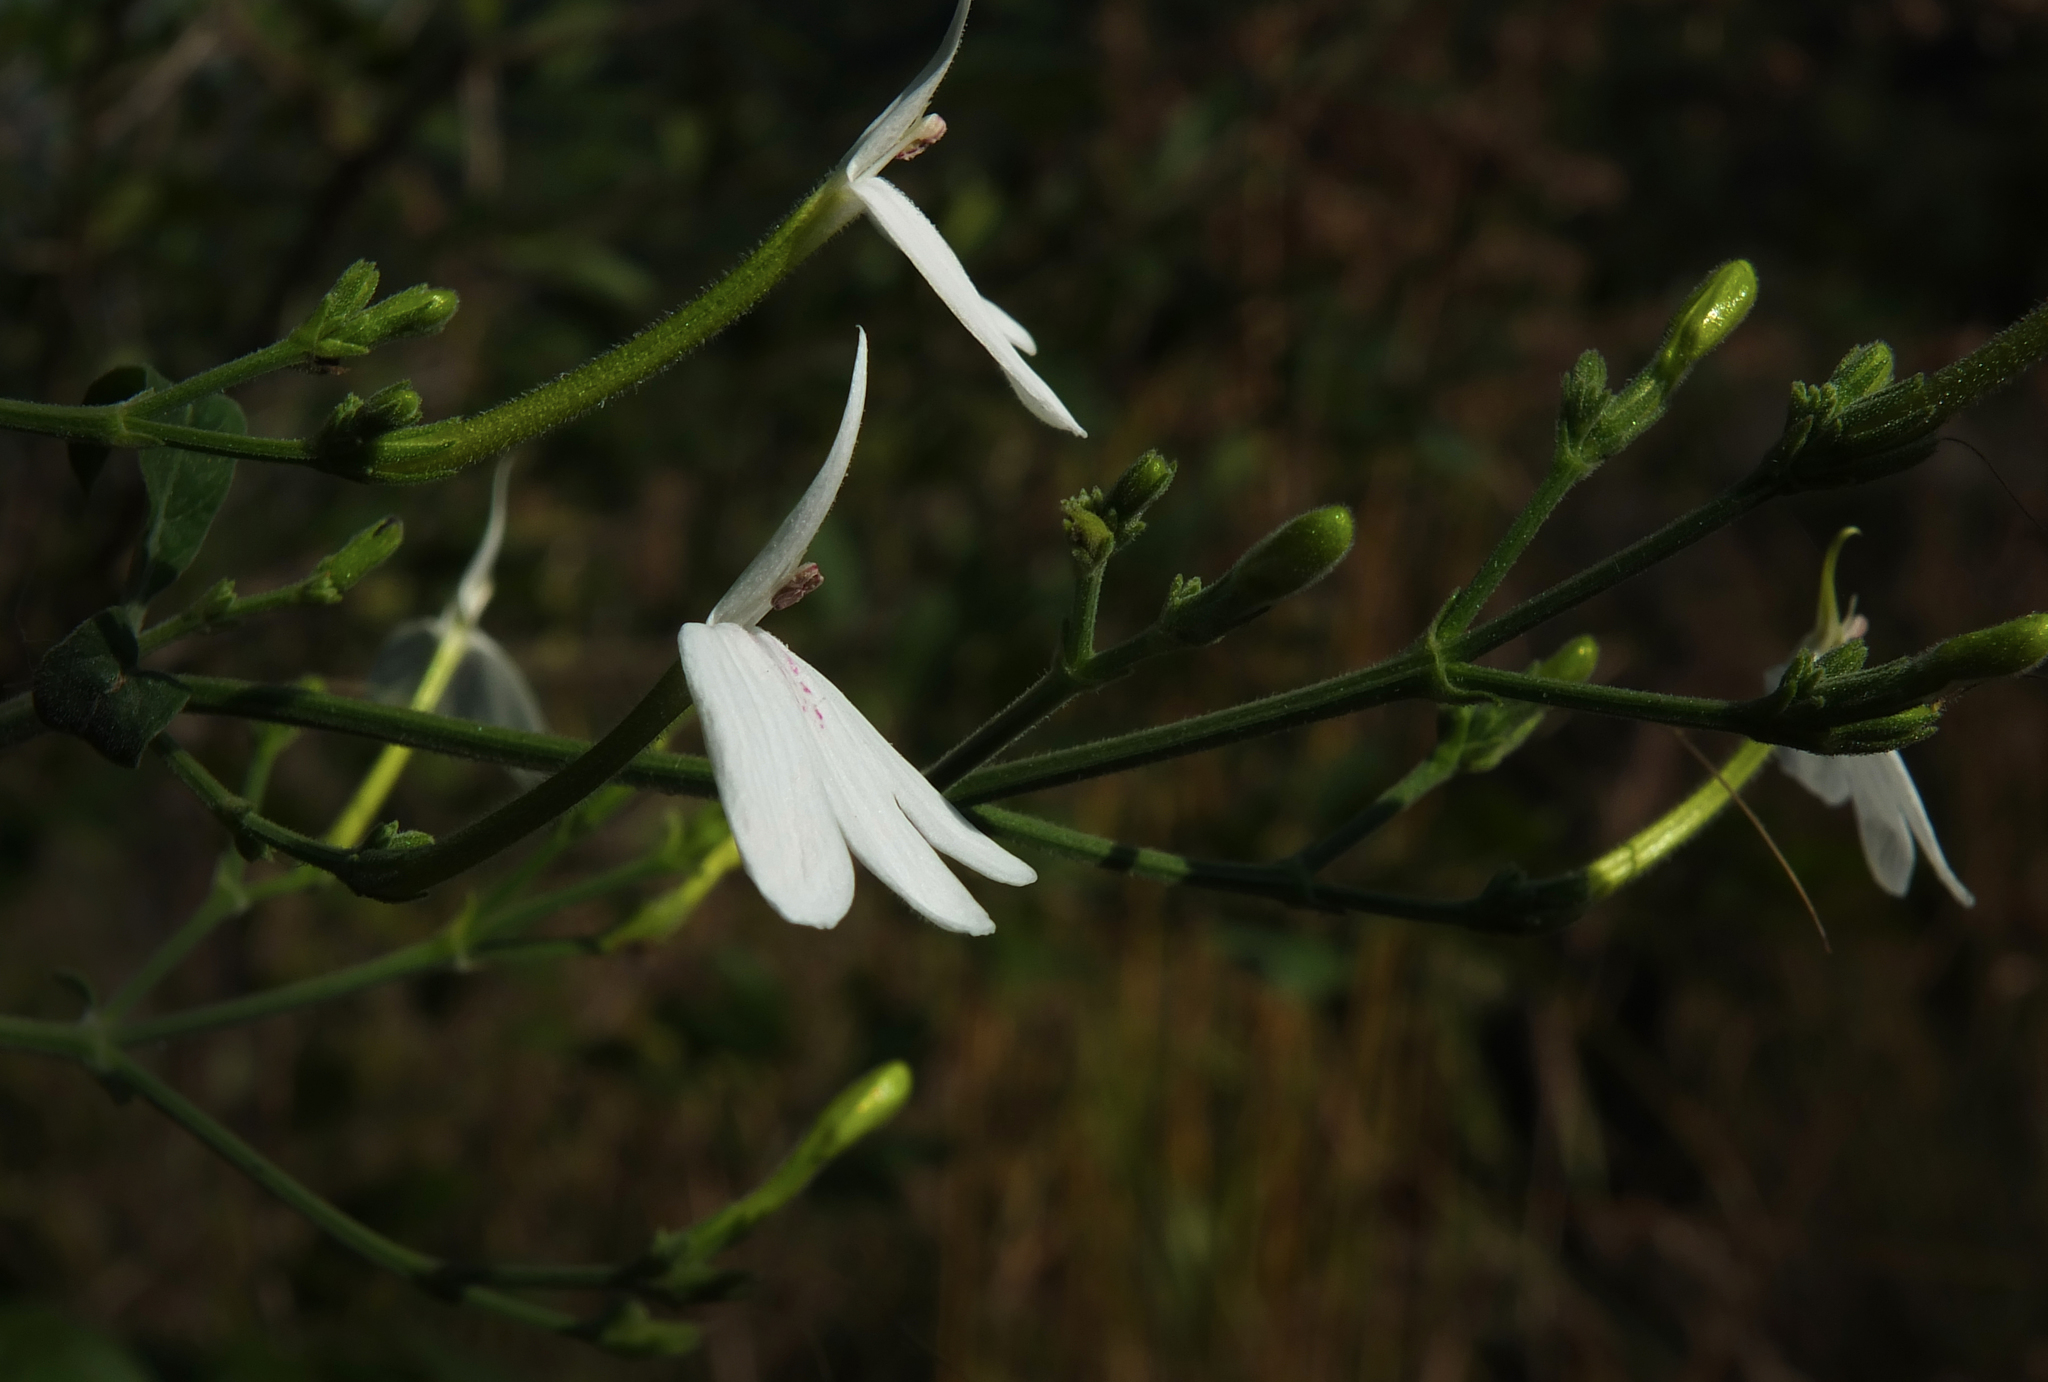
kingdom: Plantae
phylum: Tracheophyta
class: Magnoliopsida
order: Lamiales
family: Acanthaceae
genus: Rhinacanthus
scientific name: Rhinacanthus nasutus
